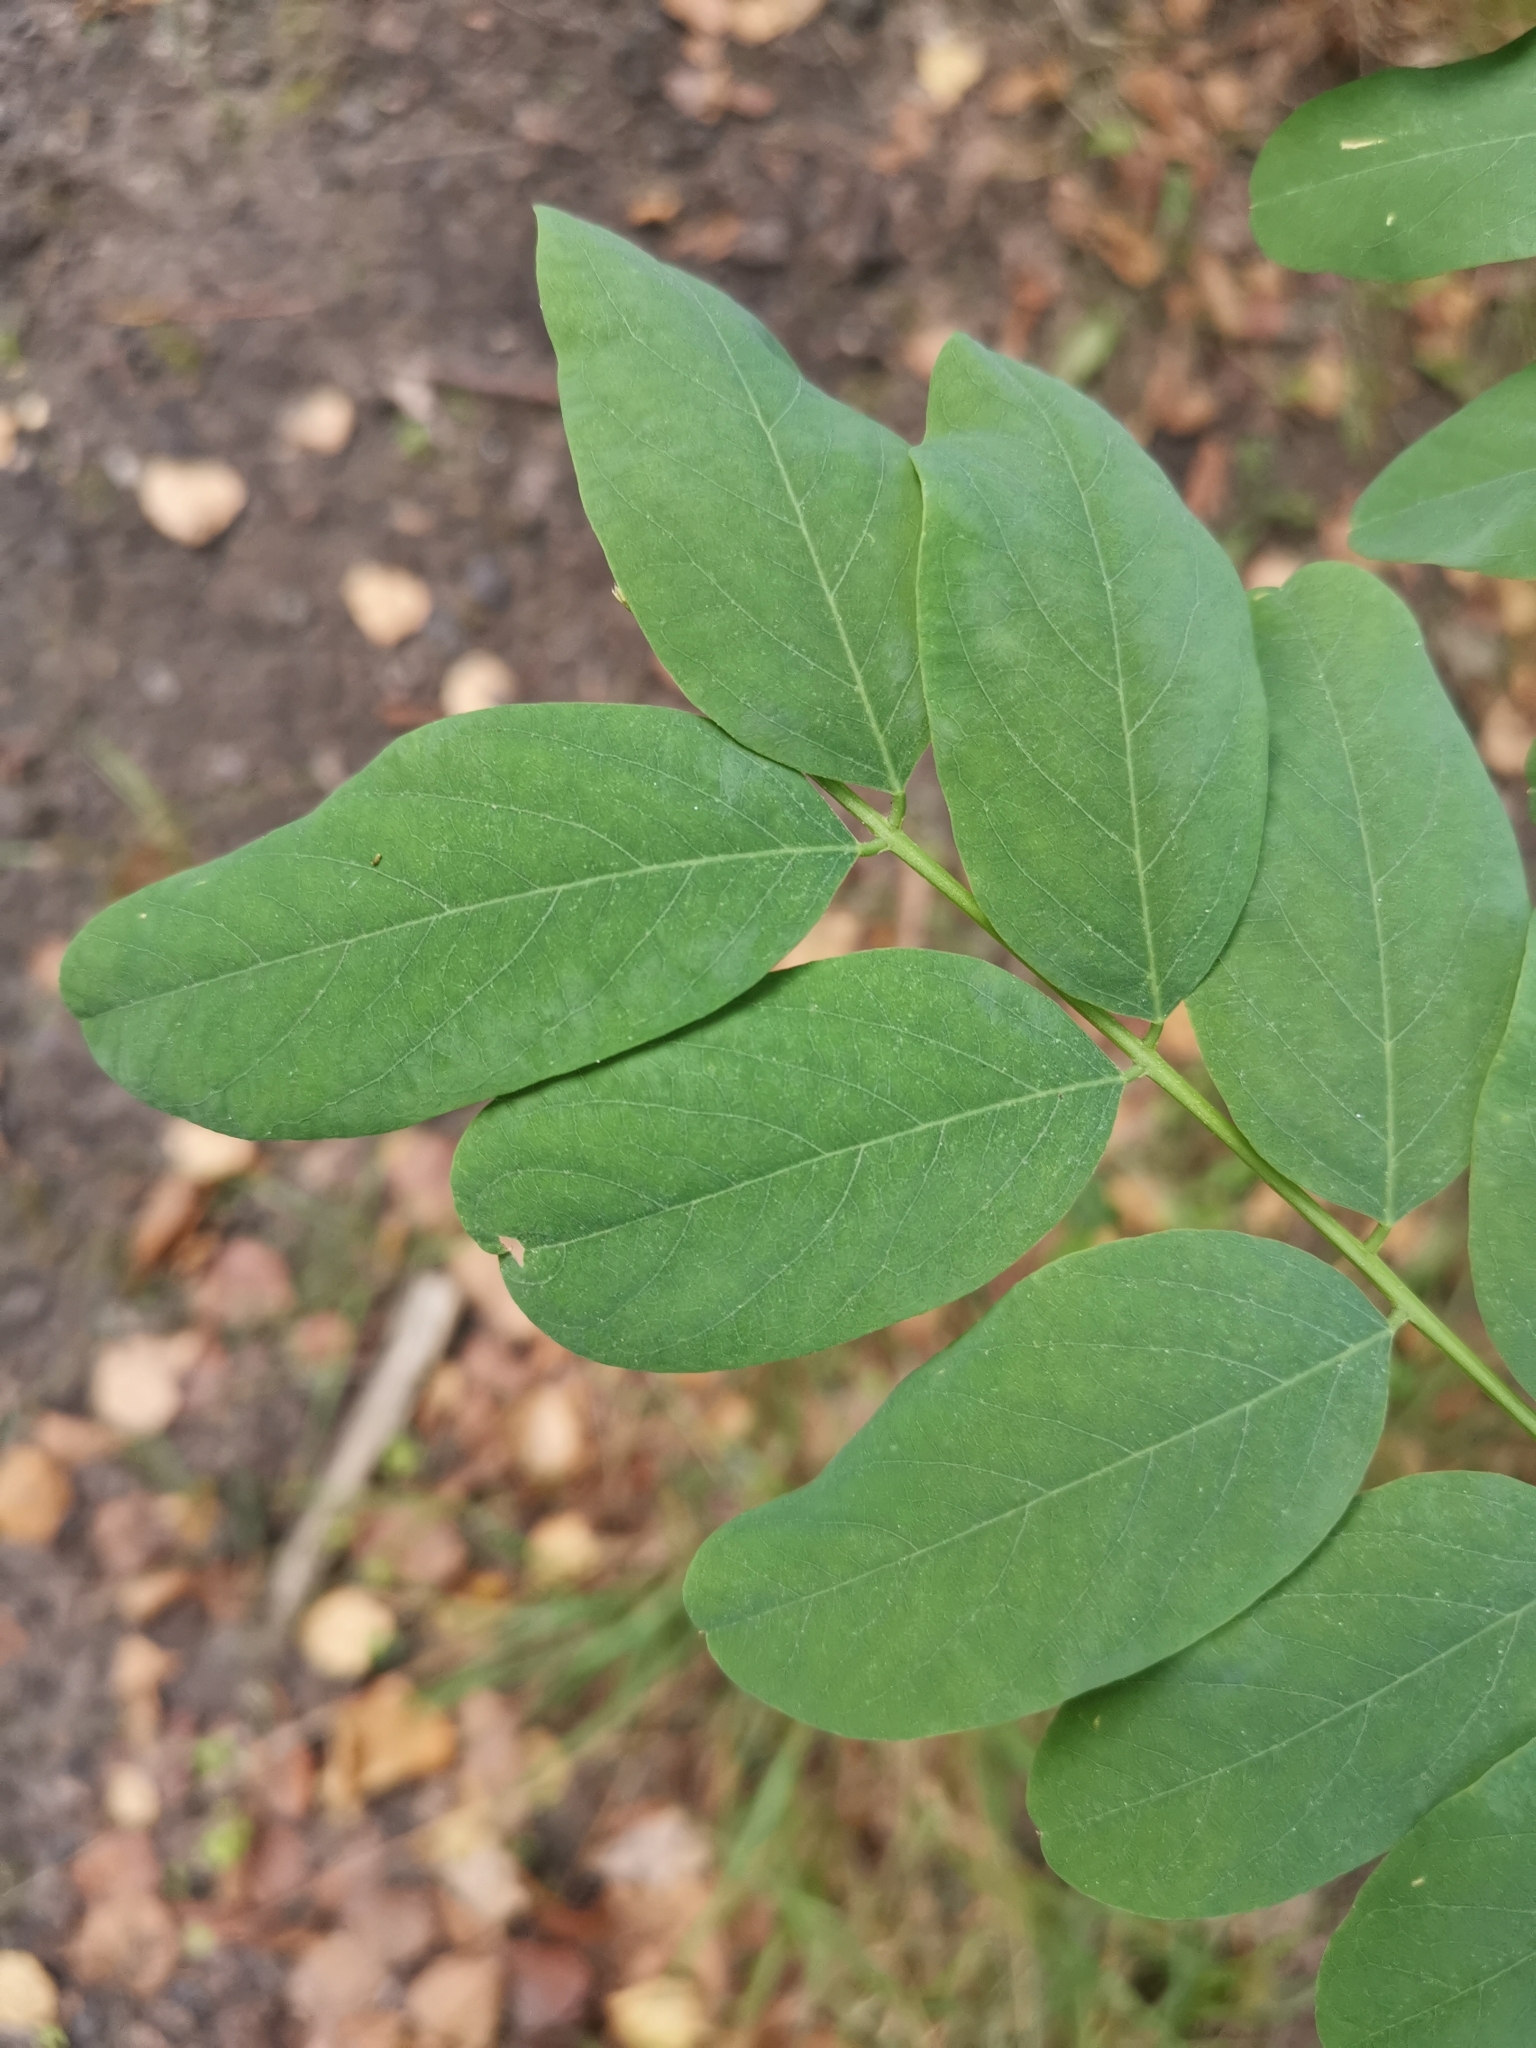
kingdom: Plantae
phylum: Tracheophyta
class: Magnoliopsida
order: Fabales
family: Fabaceae
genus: Robinia
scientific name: Robinia pseudoacacia
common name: Black locust
